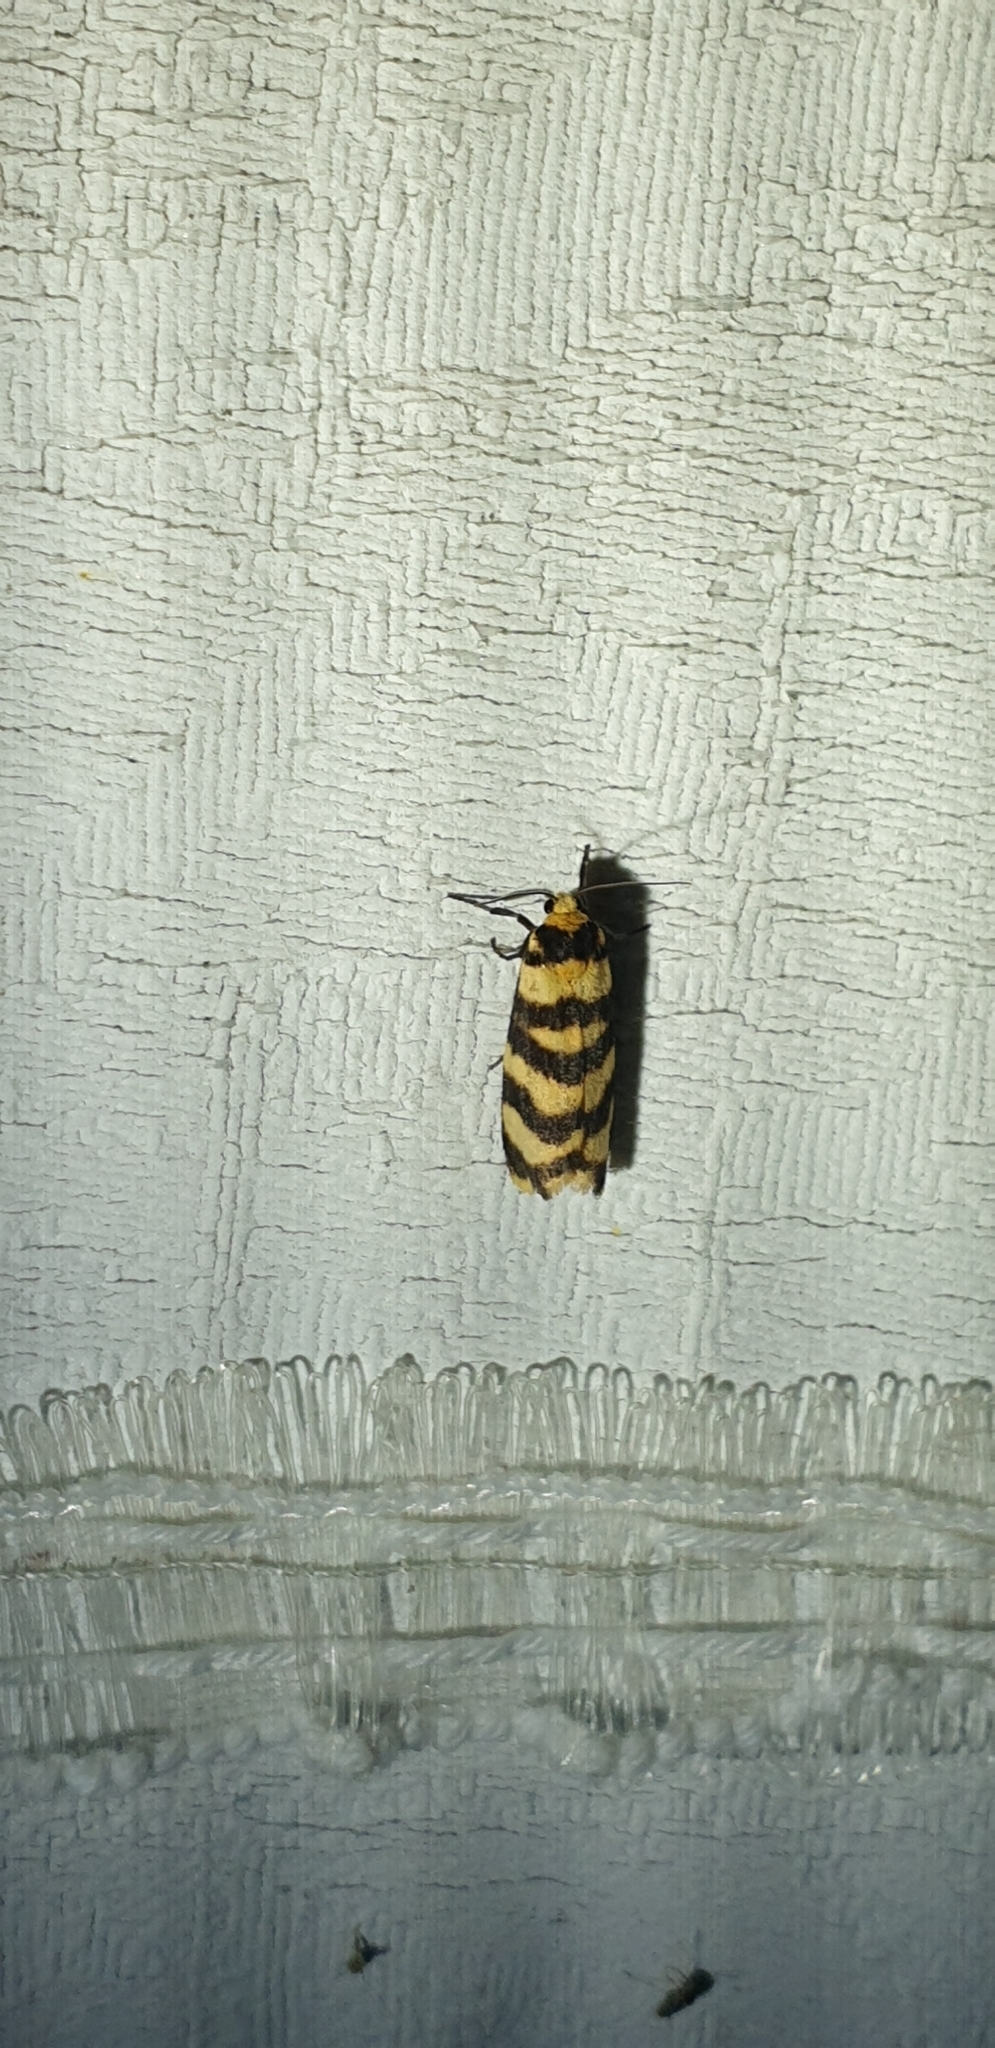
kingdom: Animalia
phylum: Arthropoda
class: Insecta
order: Lepidoptera
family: Erebidae
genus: Scaptesyle
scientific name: Scaptesyle equidistans
